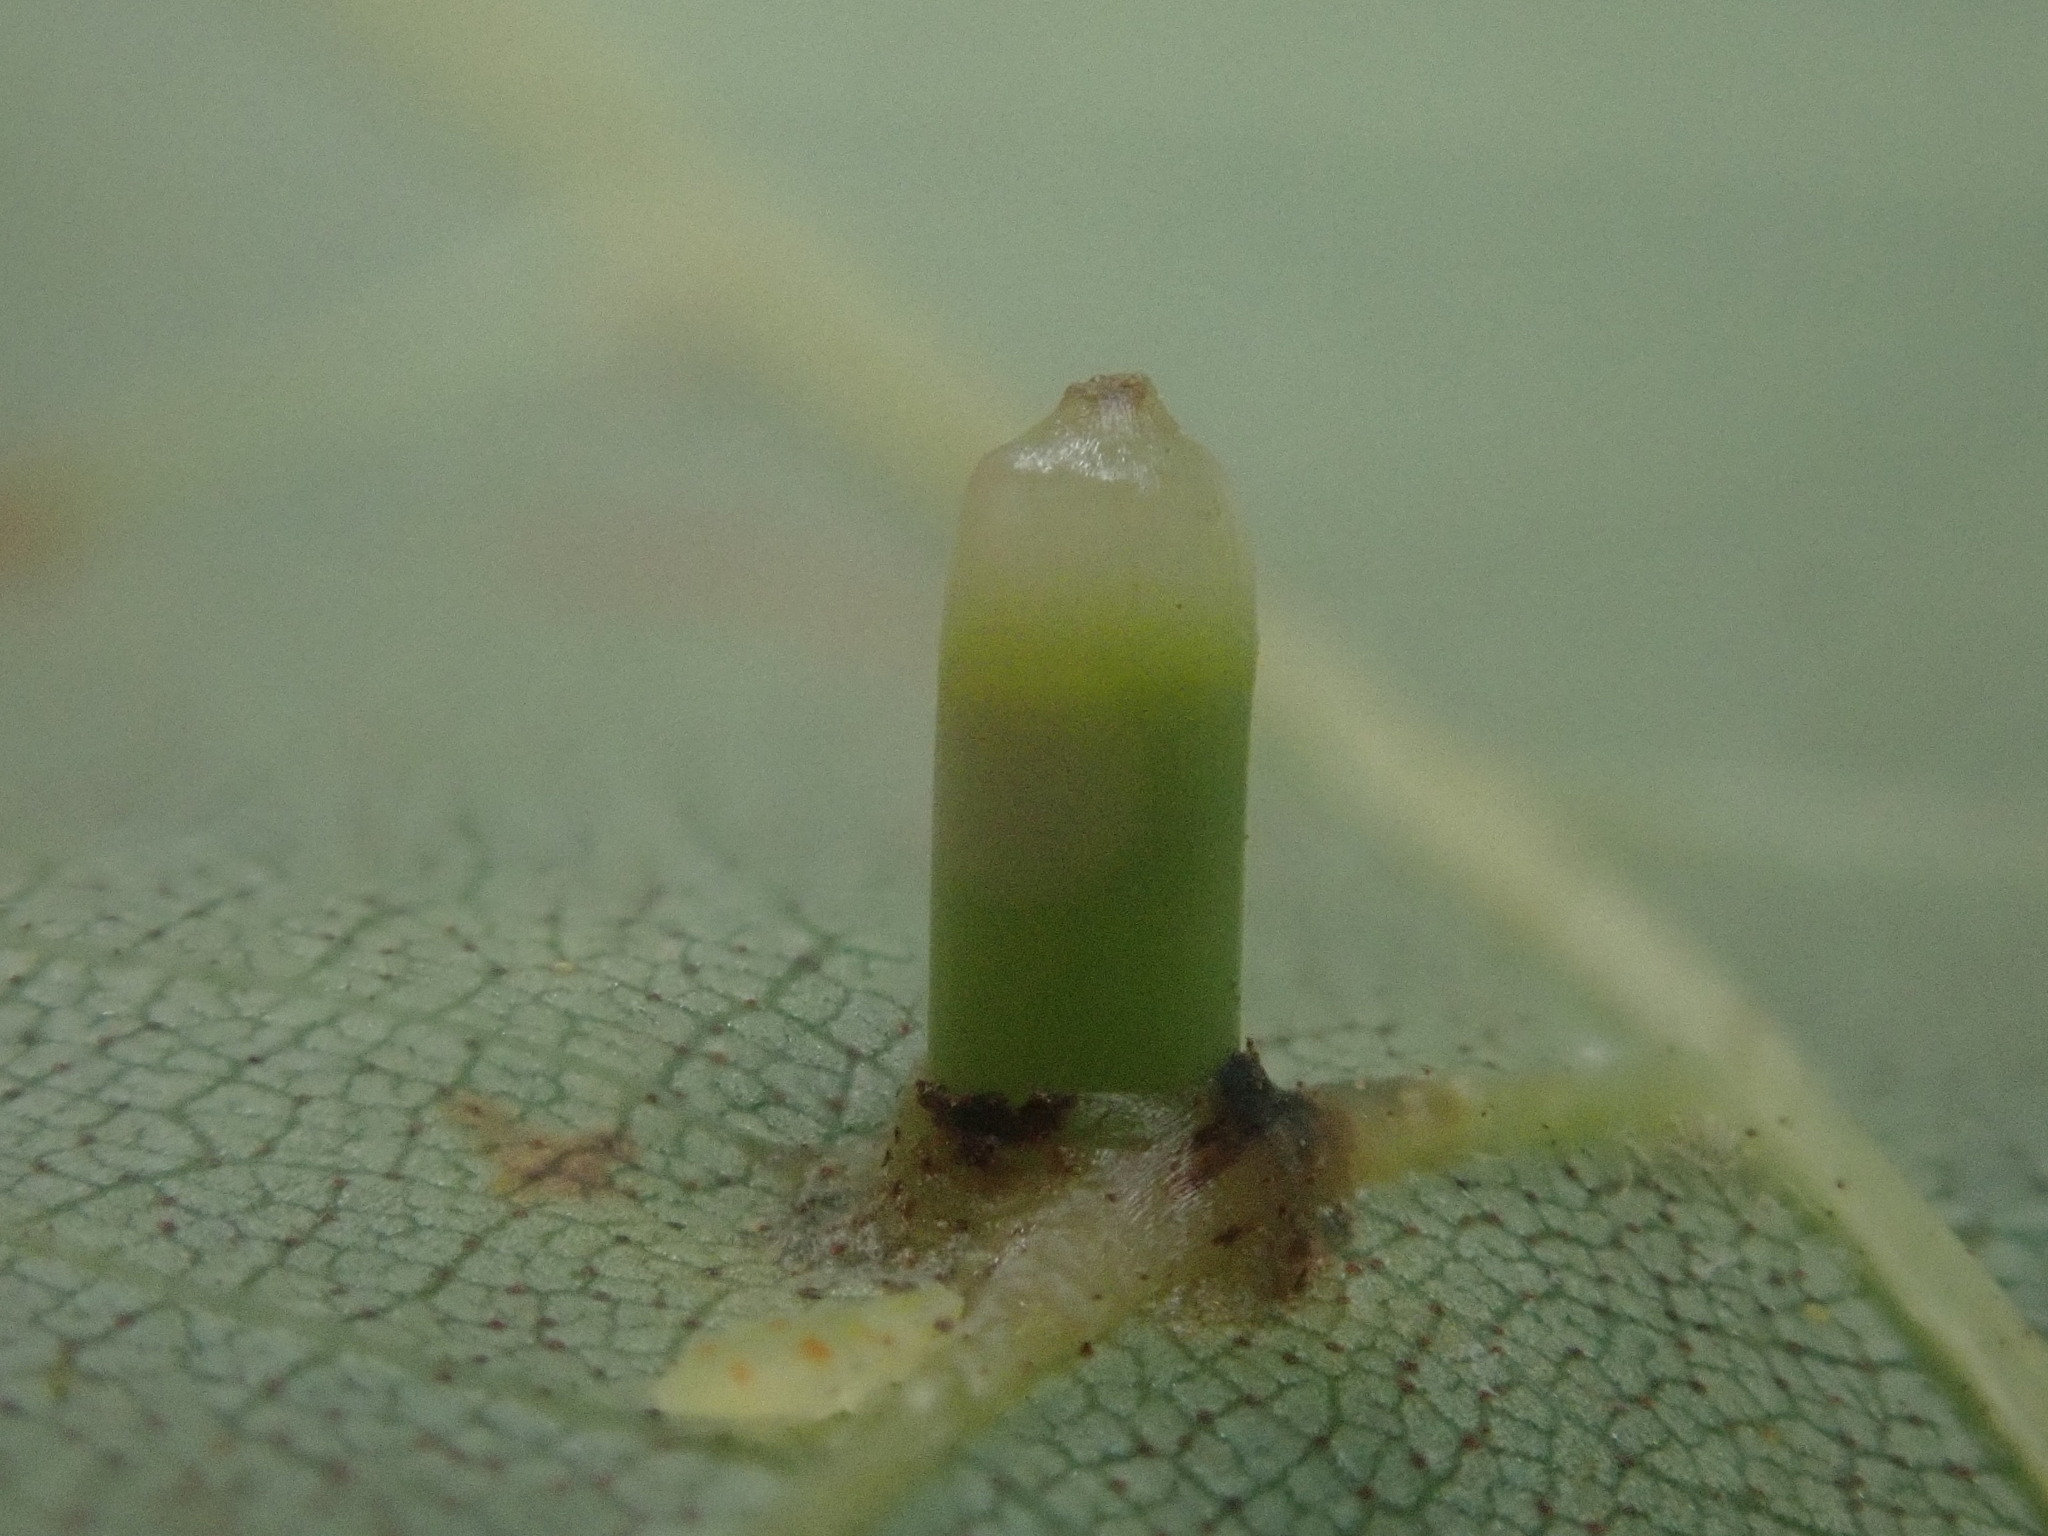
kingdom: Animalia
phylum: Arthropoda
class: Insecta
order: Diptera
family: Cecidomyiidae
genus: Caryomyia
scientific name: Caryomyia tubicola
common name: Hickory bullet gall midge
